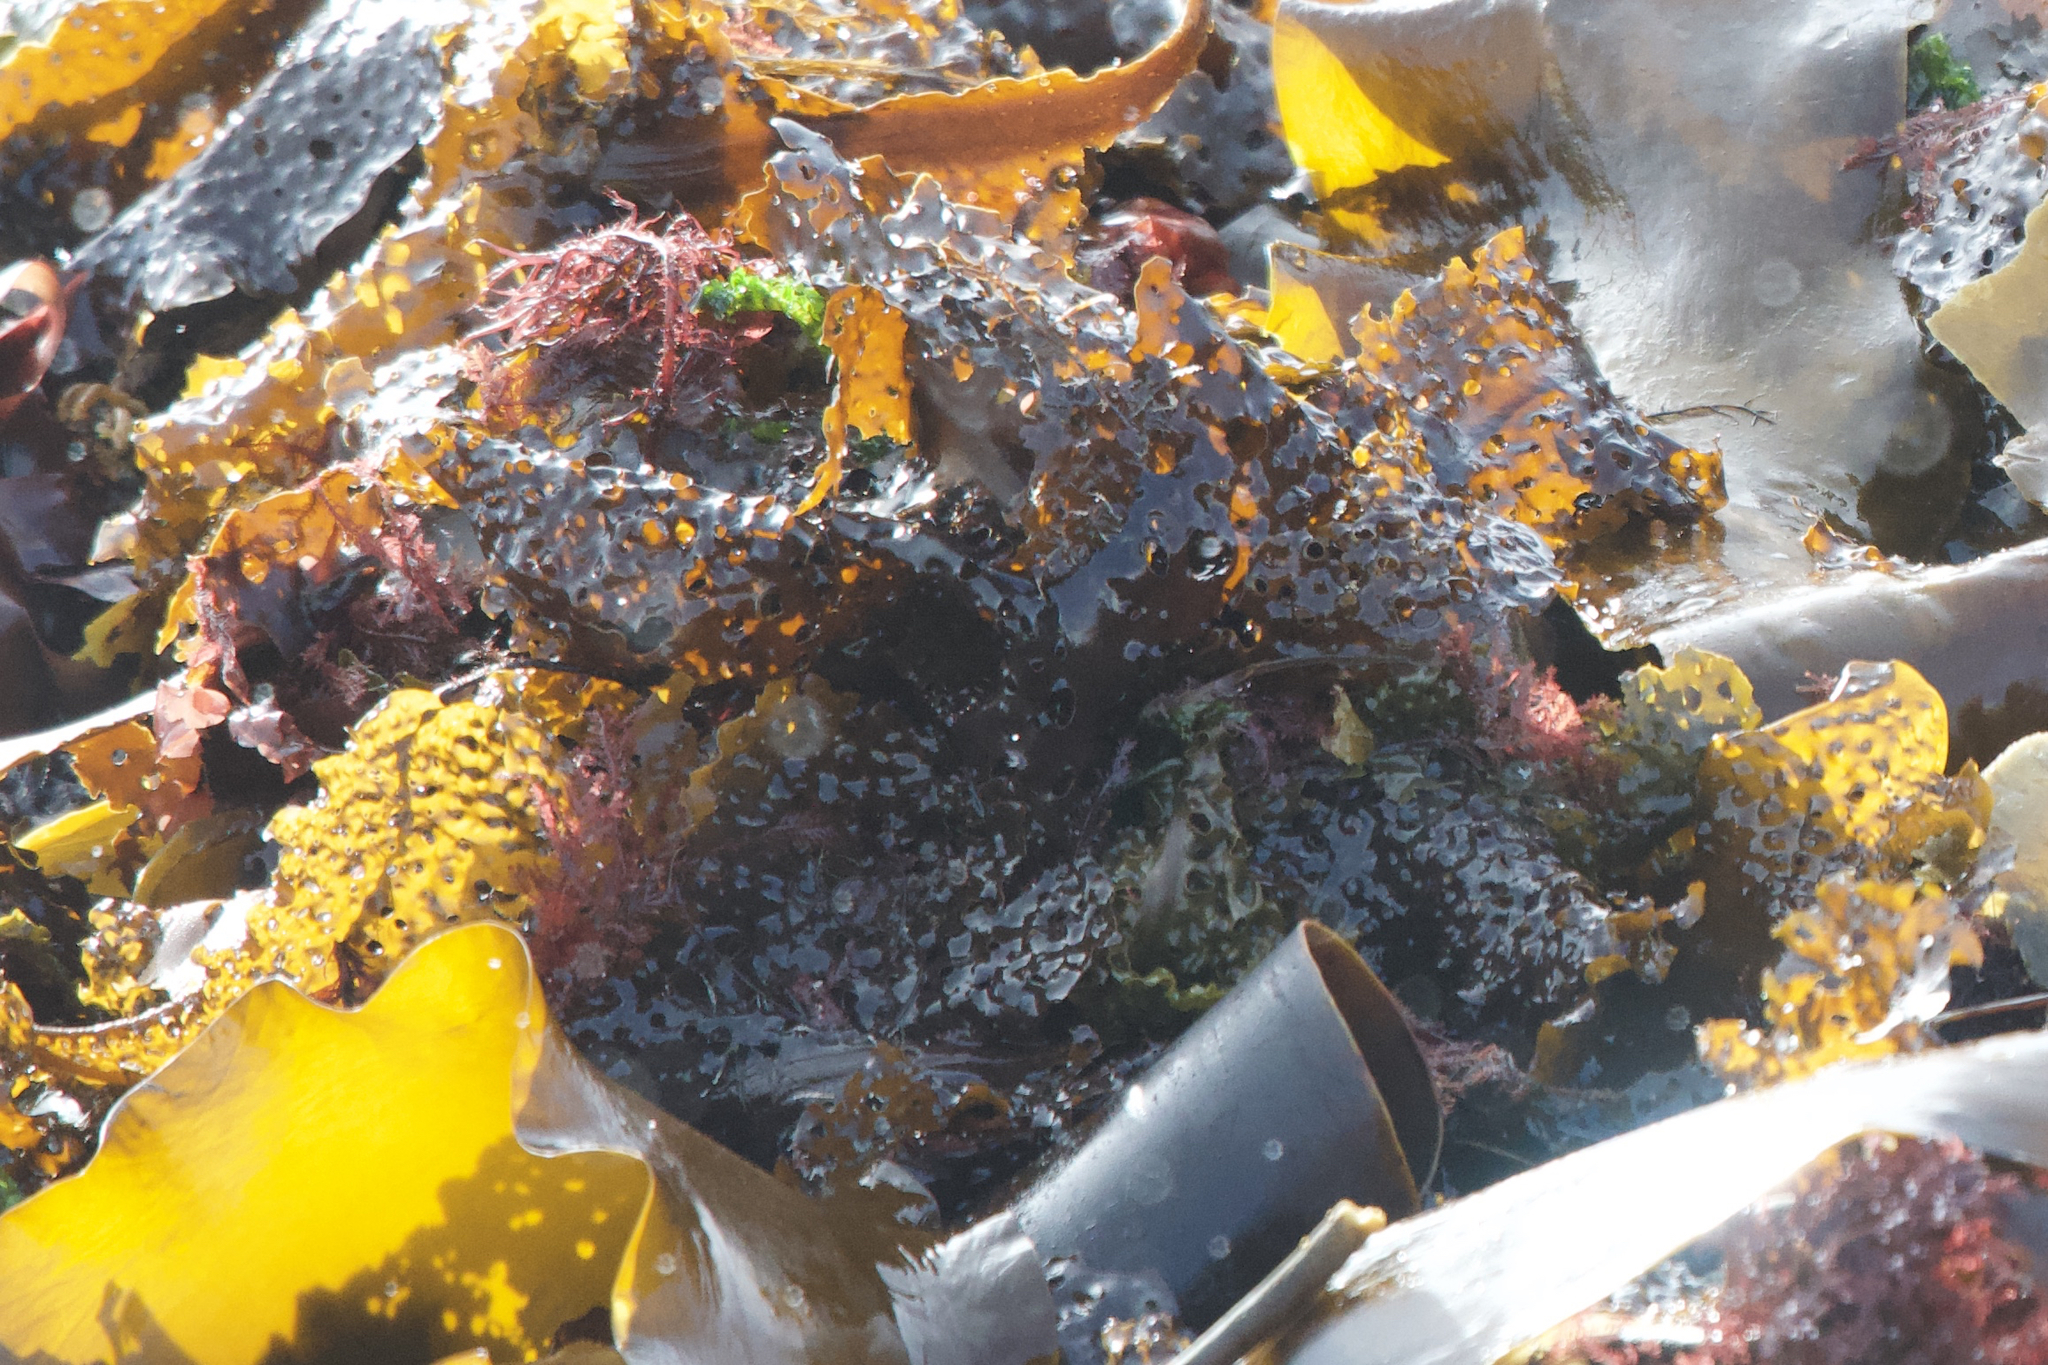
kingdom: Chromista
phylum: Ochrophyta
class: Phaeophyceae
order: Laminariales
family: Costariaceae
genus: Agarum
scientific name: Agarum clathratum
